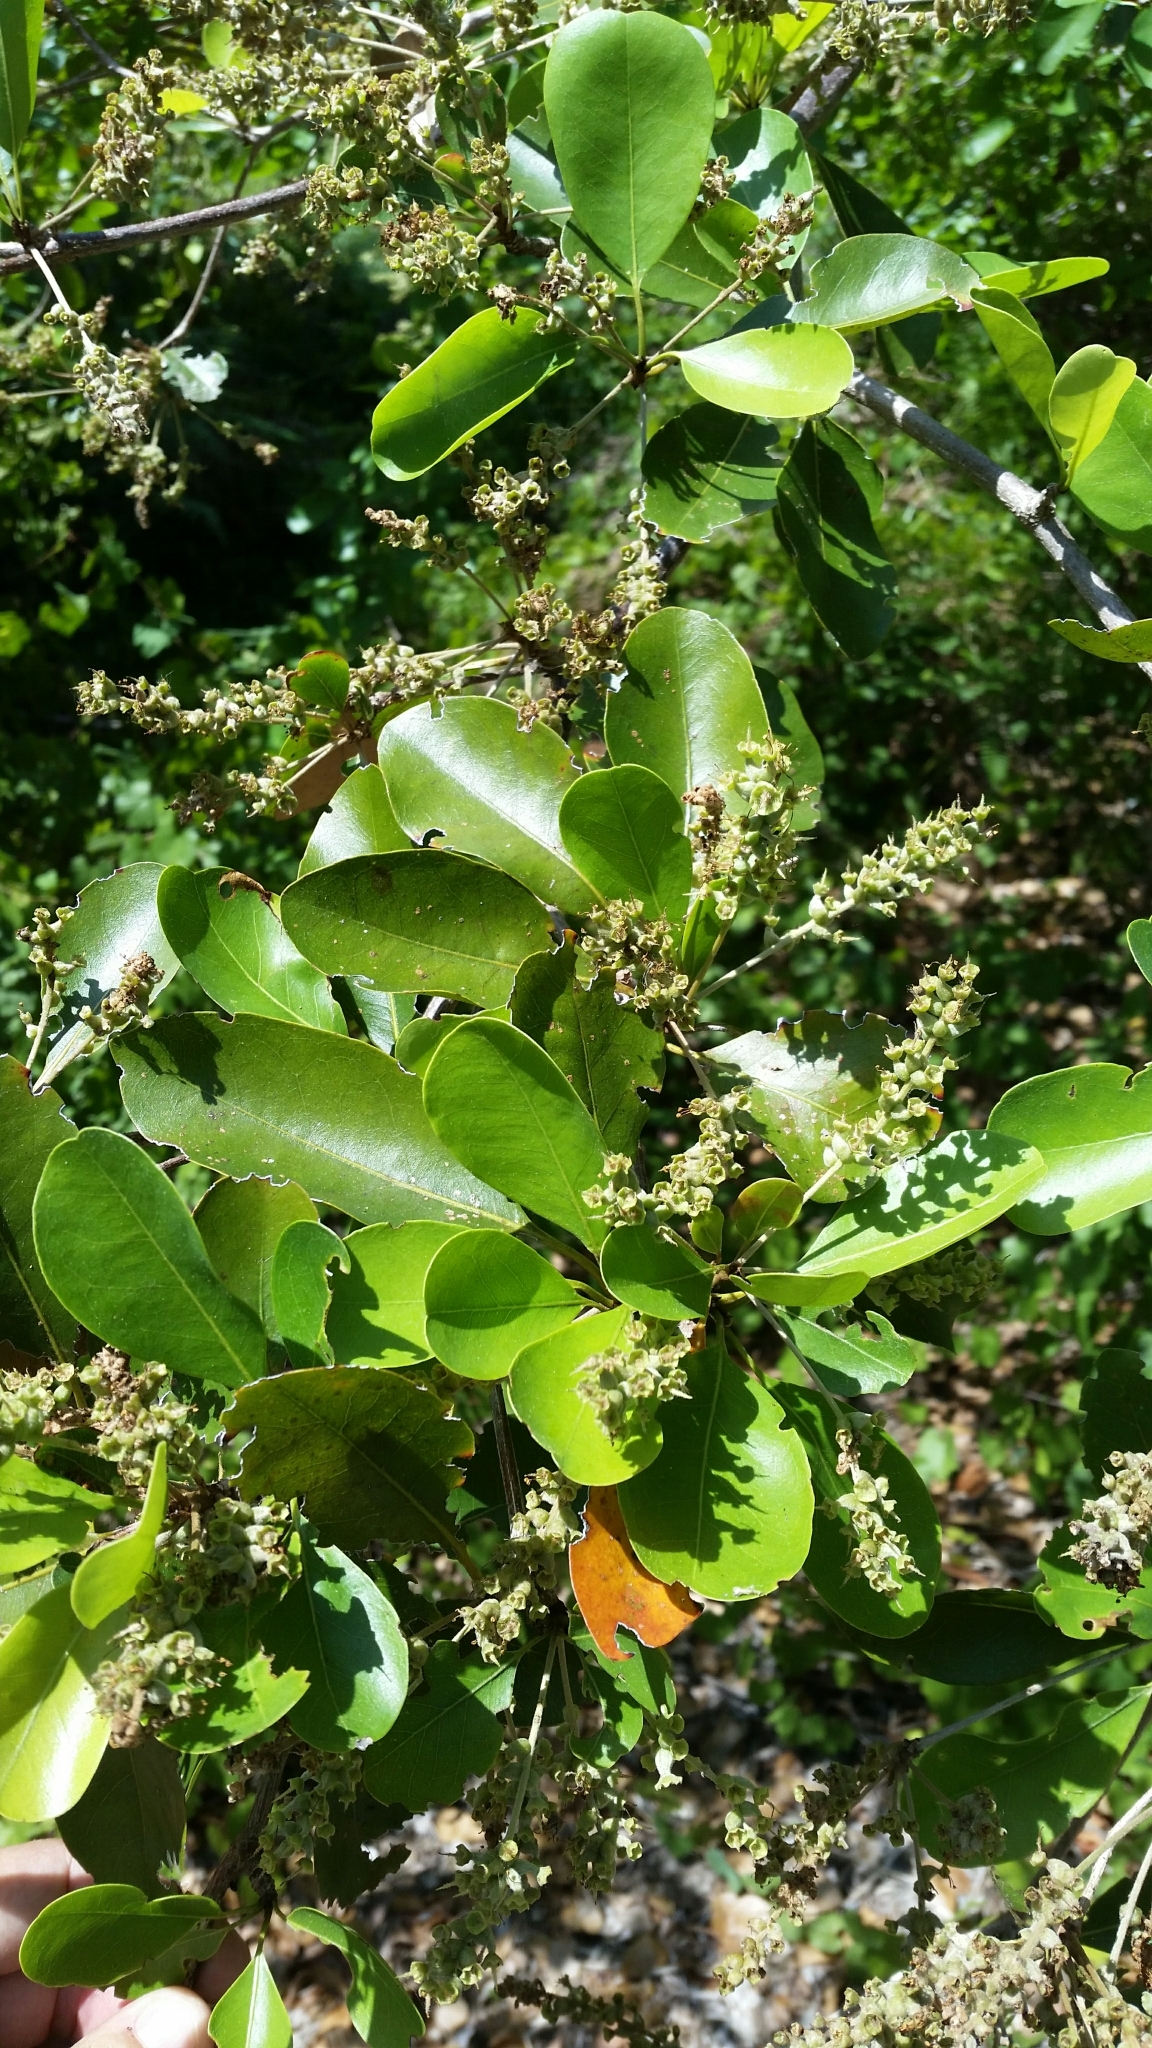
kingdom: Plantae
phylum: Tracheophyta
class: Magnoliopsida
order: Myrtales
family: Combretaceae
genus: Terminalia
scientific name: Terminalia buceras
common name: Black-olive
